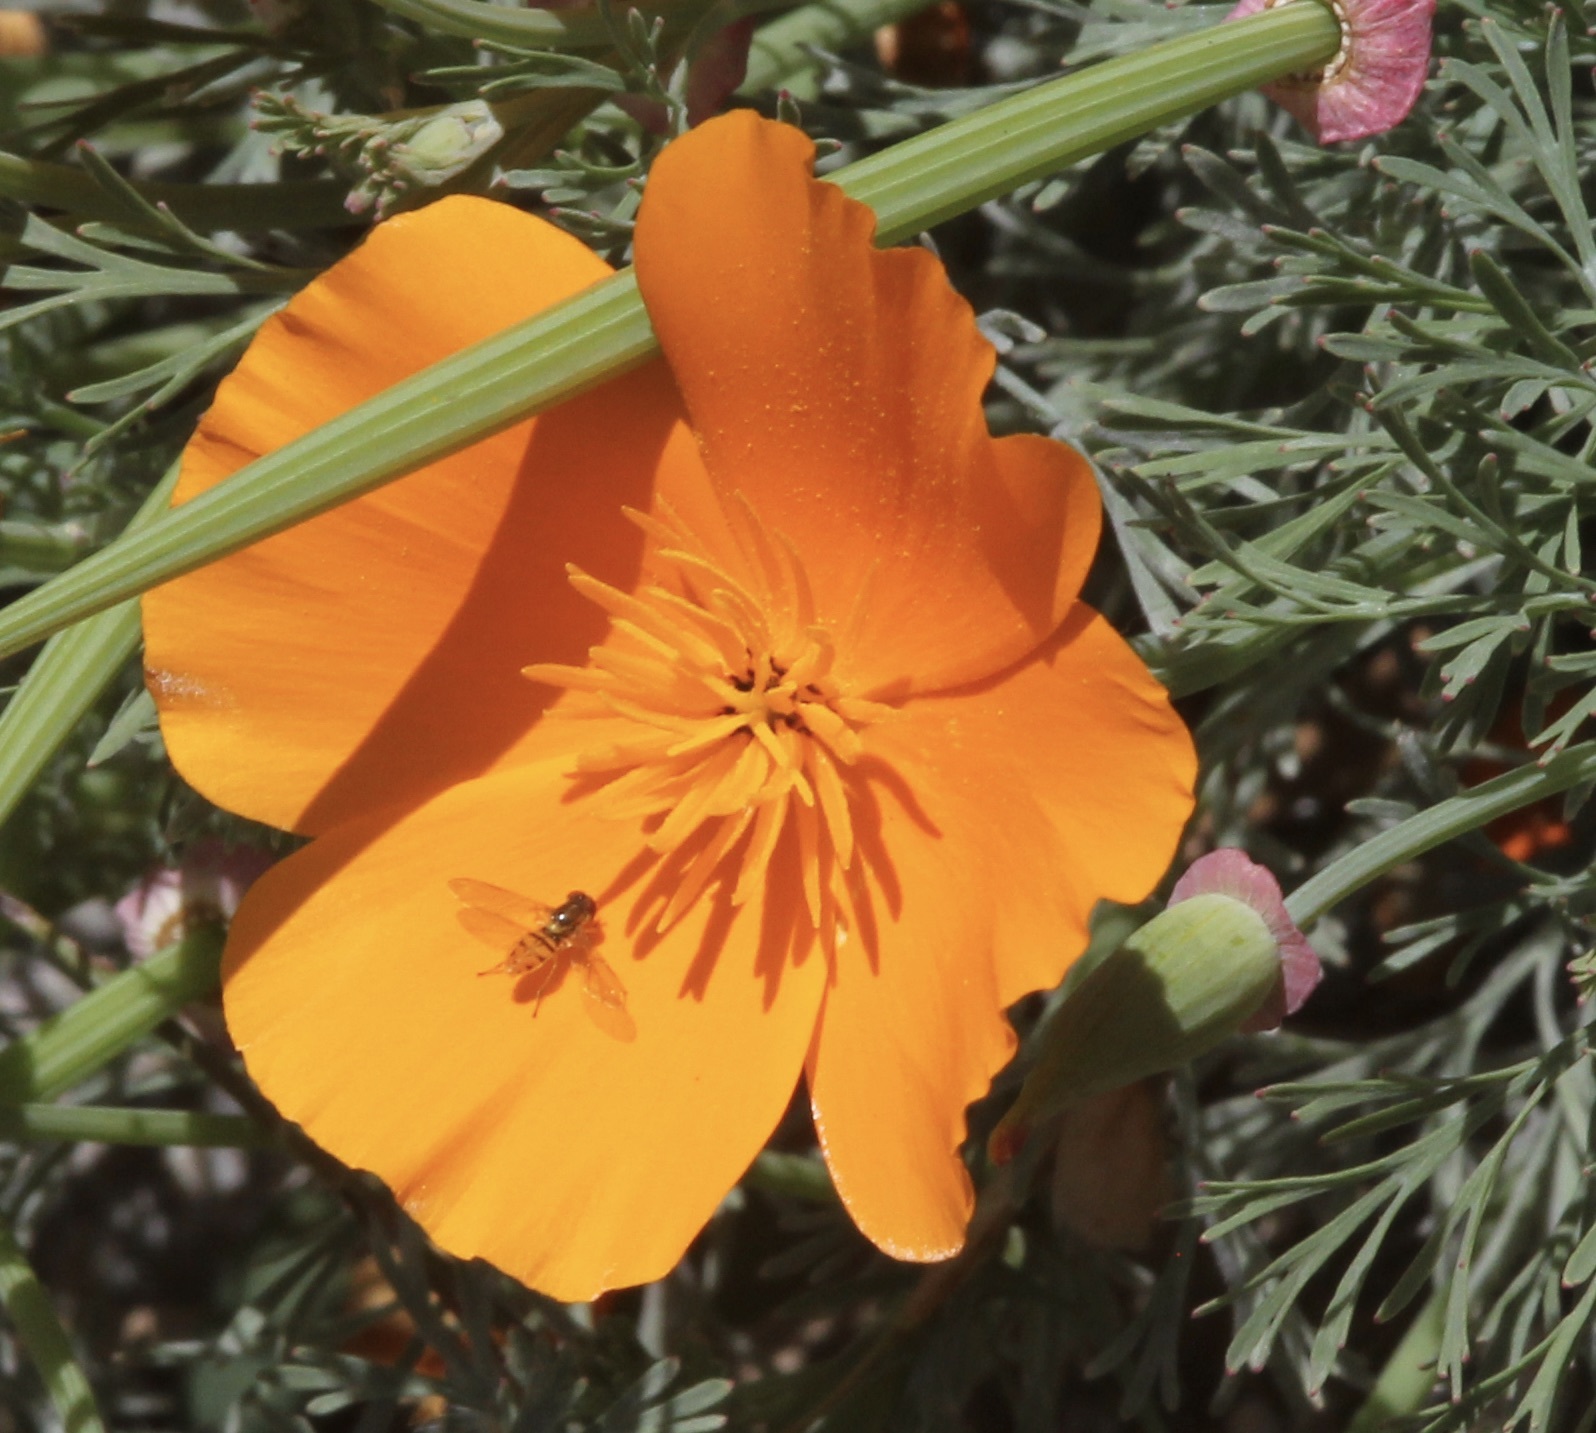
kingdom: Animalia
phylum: Arthropoda
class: Insecta
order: Diptera
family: Syrphidae
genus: Toxomerus
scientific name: Toxomerus marginatus
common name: Syrphid fly
